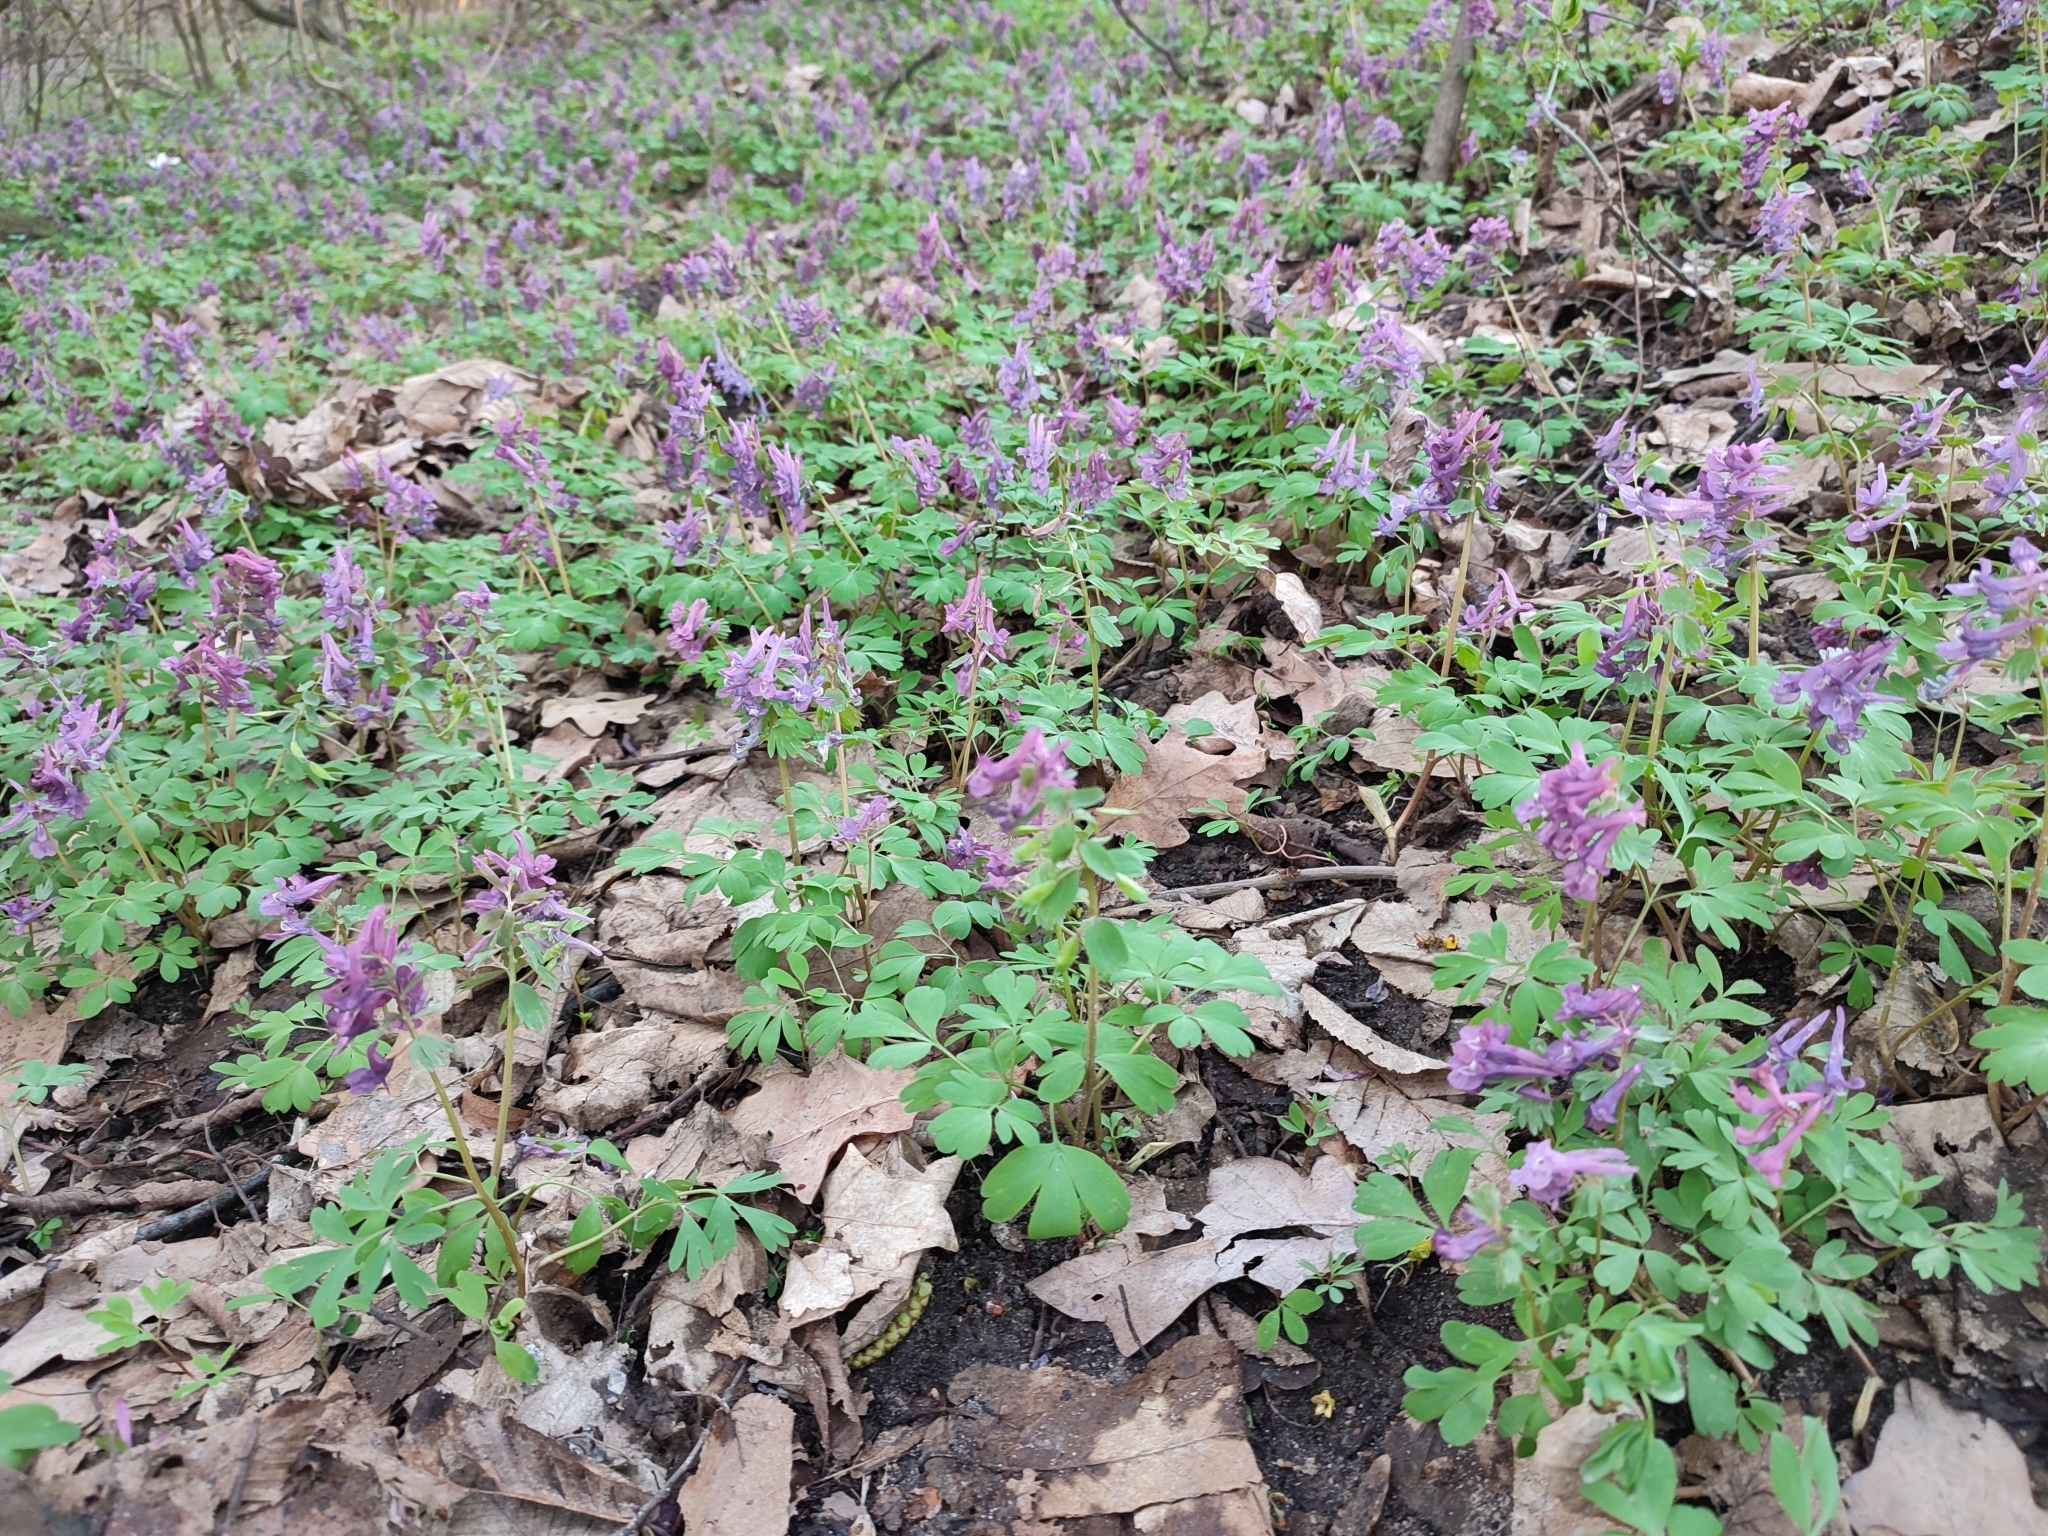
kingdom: Plantae
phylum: Tracheophyta
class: Magnoliopsida
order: Ranunculales
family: Papaveraceae
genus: Corydalis
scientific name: Corydalis solida
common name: Bird-in-a-bush
